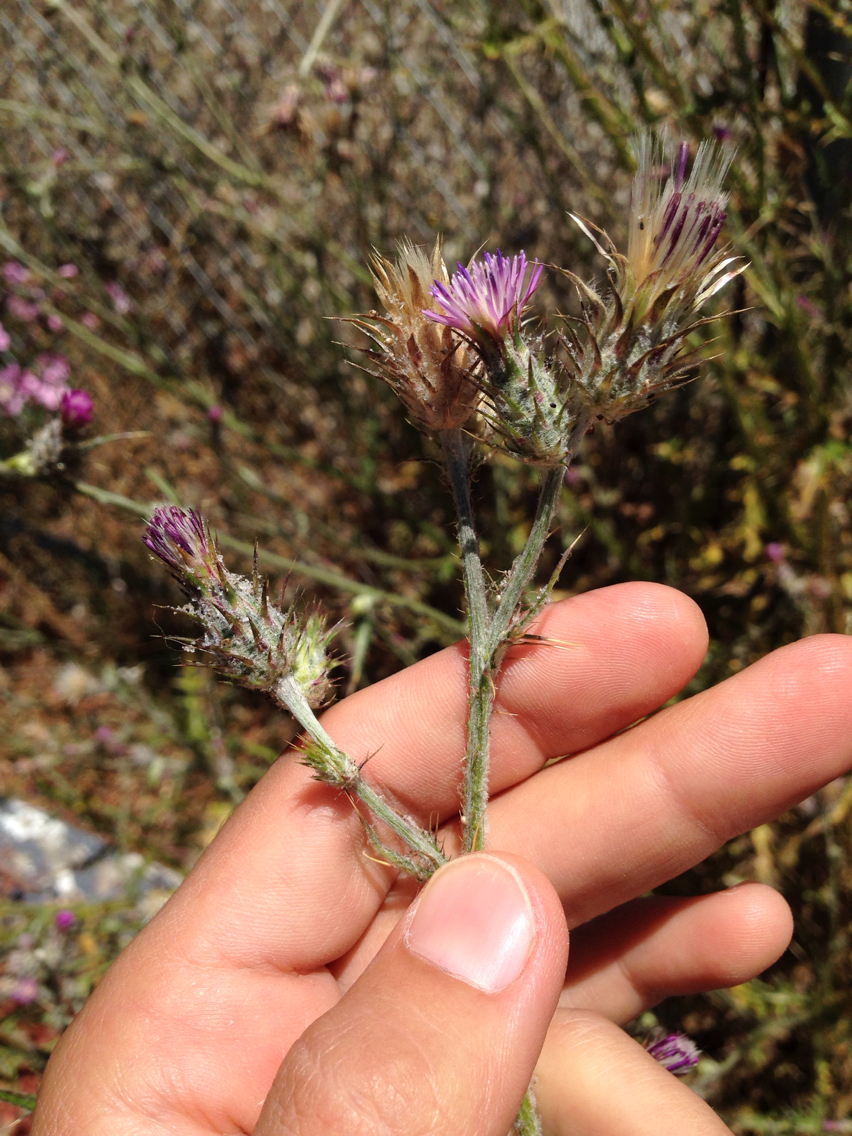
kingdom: Plantae
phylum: Tracheophyta
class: Magnoliopsida
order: Asterales
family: Asteraceae
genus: Carduus
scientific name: Carduus pycnocephalus
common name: Plymouth thistle
